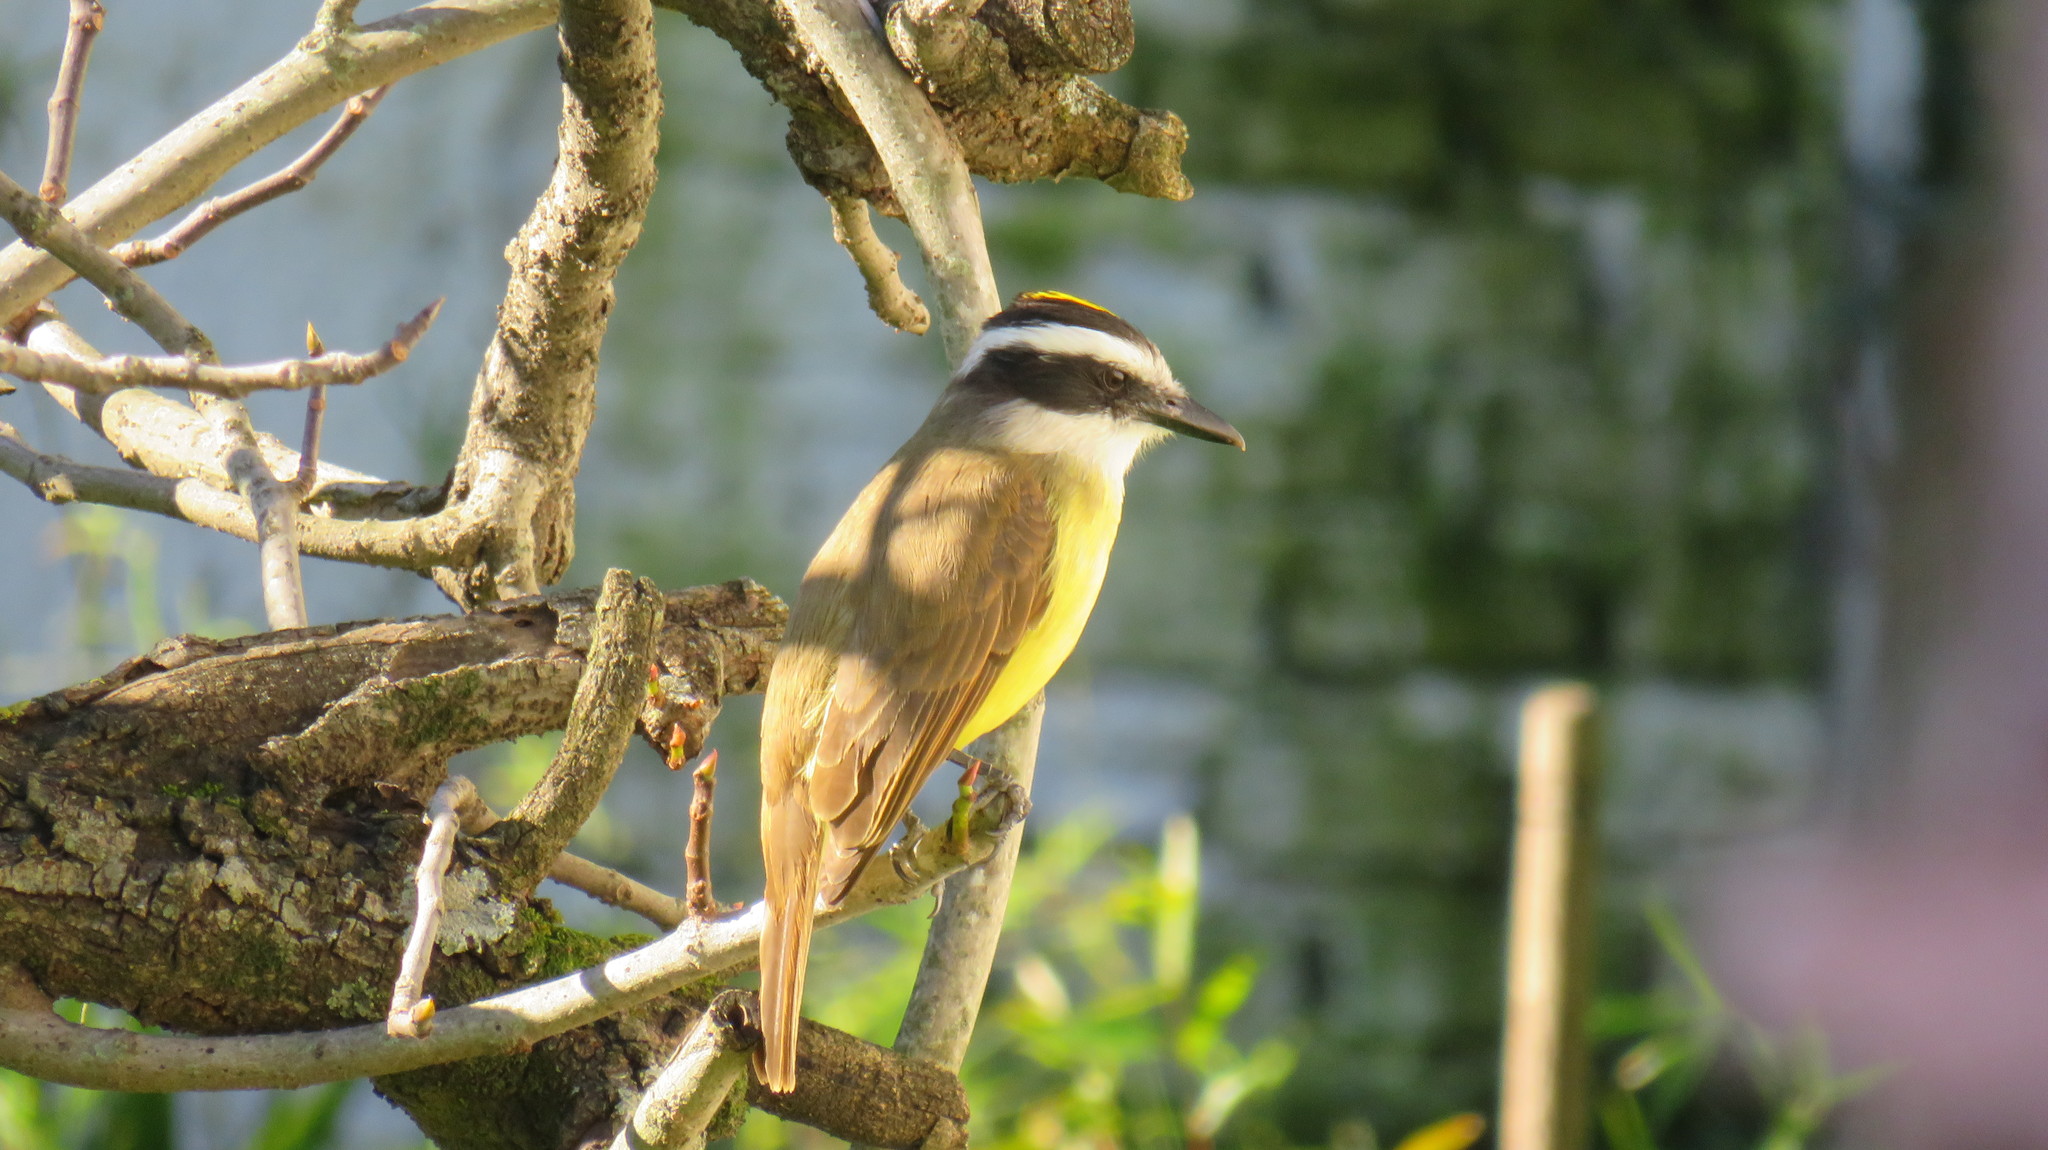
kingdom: Animalia
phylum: Chordata
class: Aves
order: Passeriformes
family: Tyrannidae
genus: Pitangus
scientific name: Pitangus sulphuratus
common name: Great kiskadee
